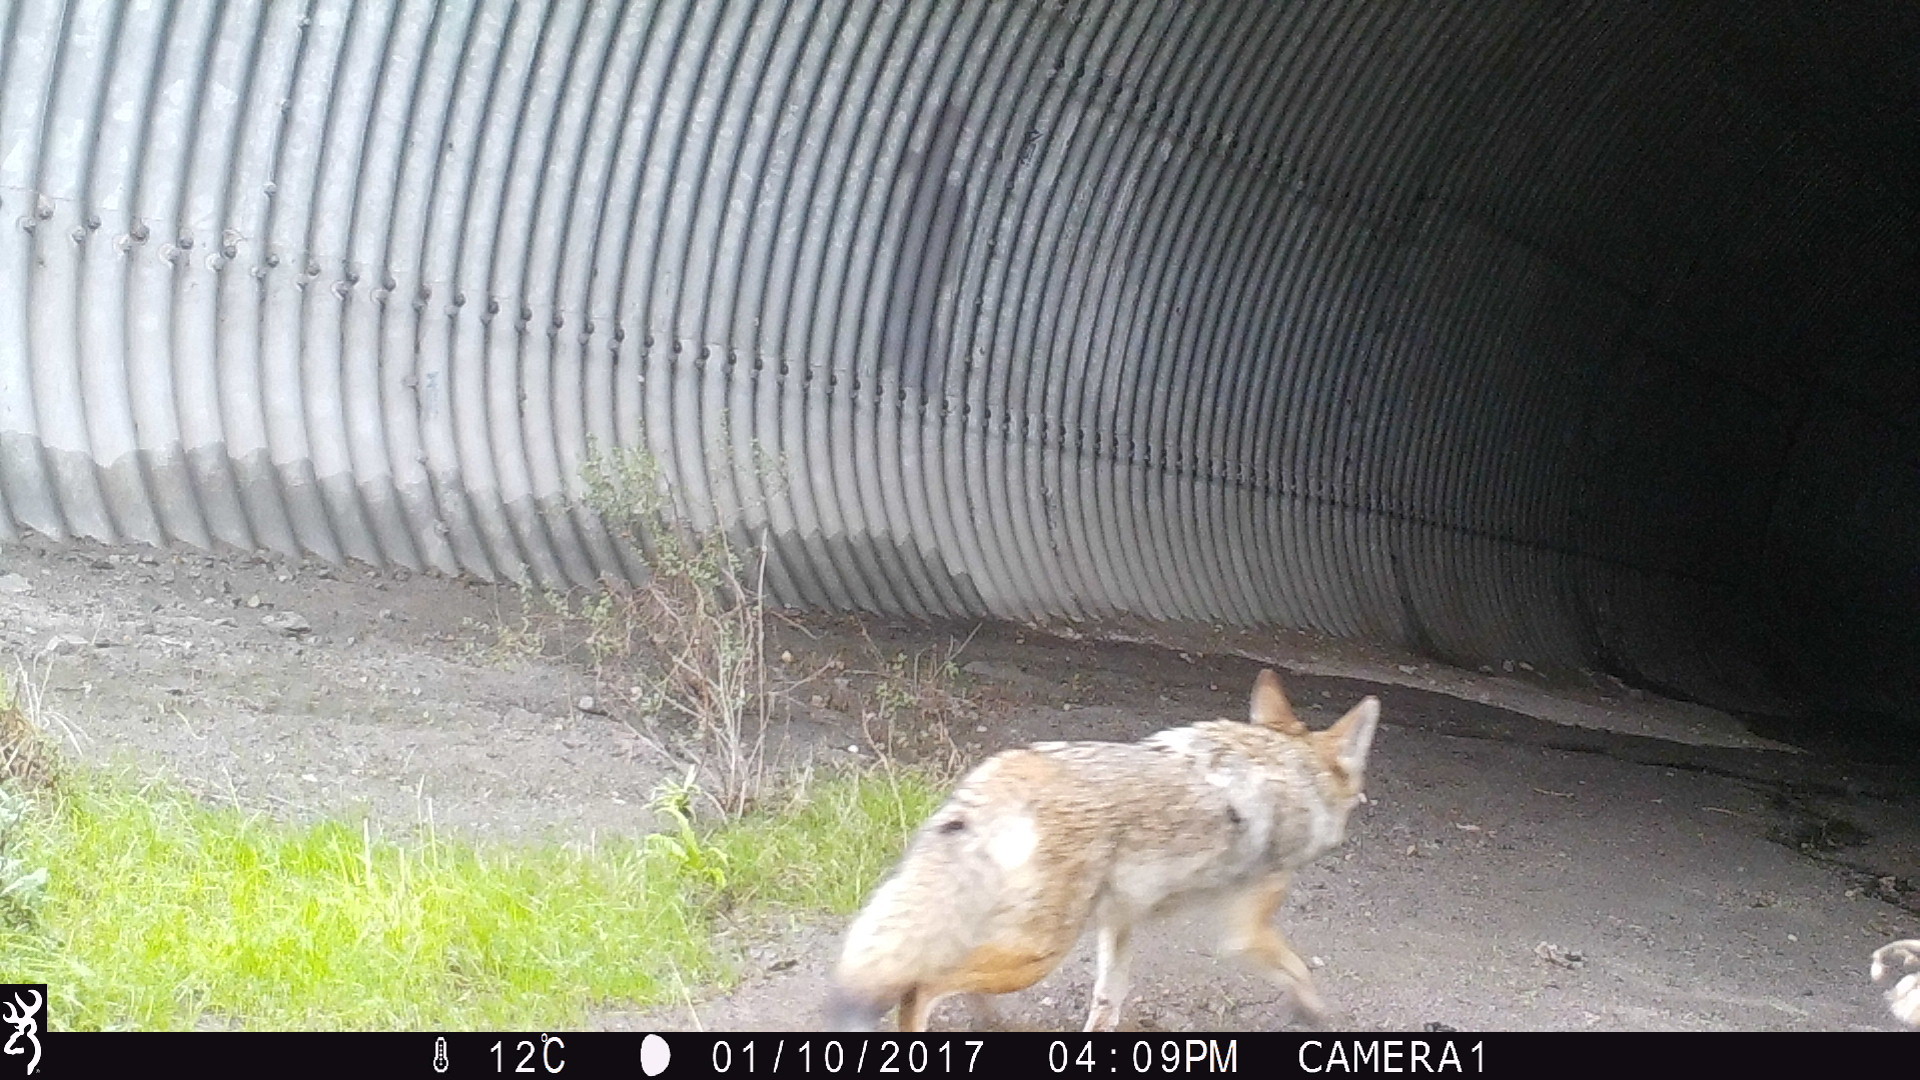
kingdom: Animalia
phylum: Chordata
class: Mammalia
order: Carnivora
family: Canidae
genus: Canis
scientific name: Canis latrans
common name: Coyote
